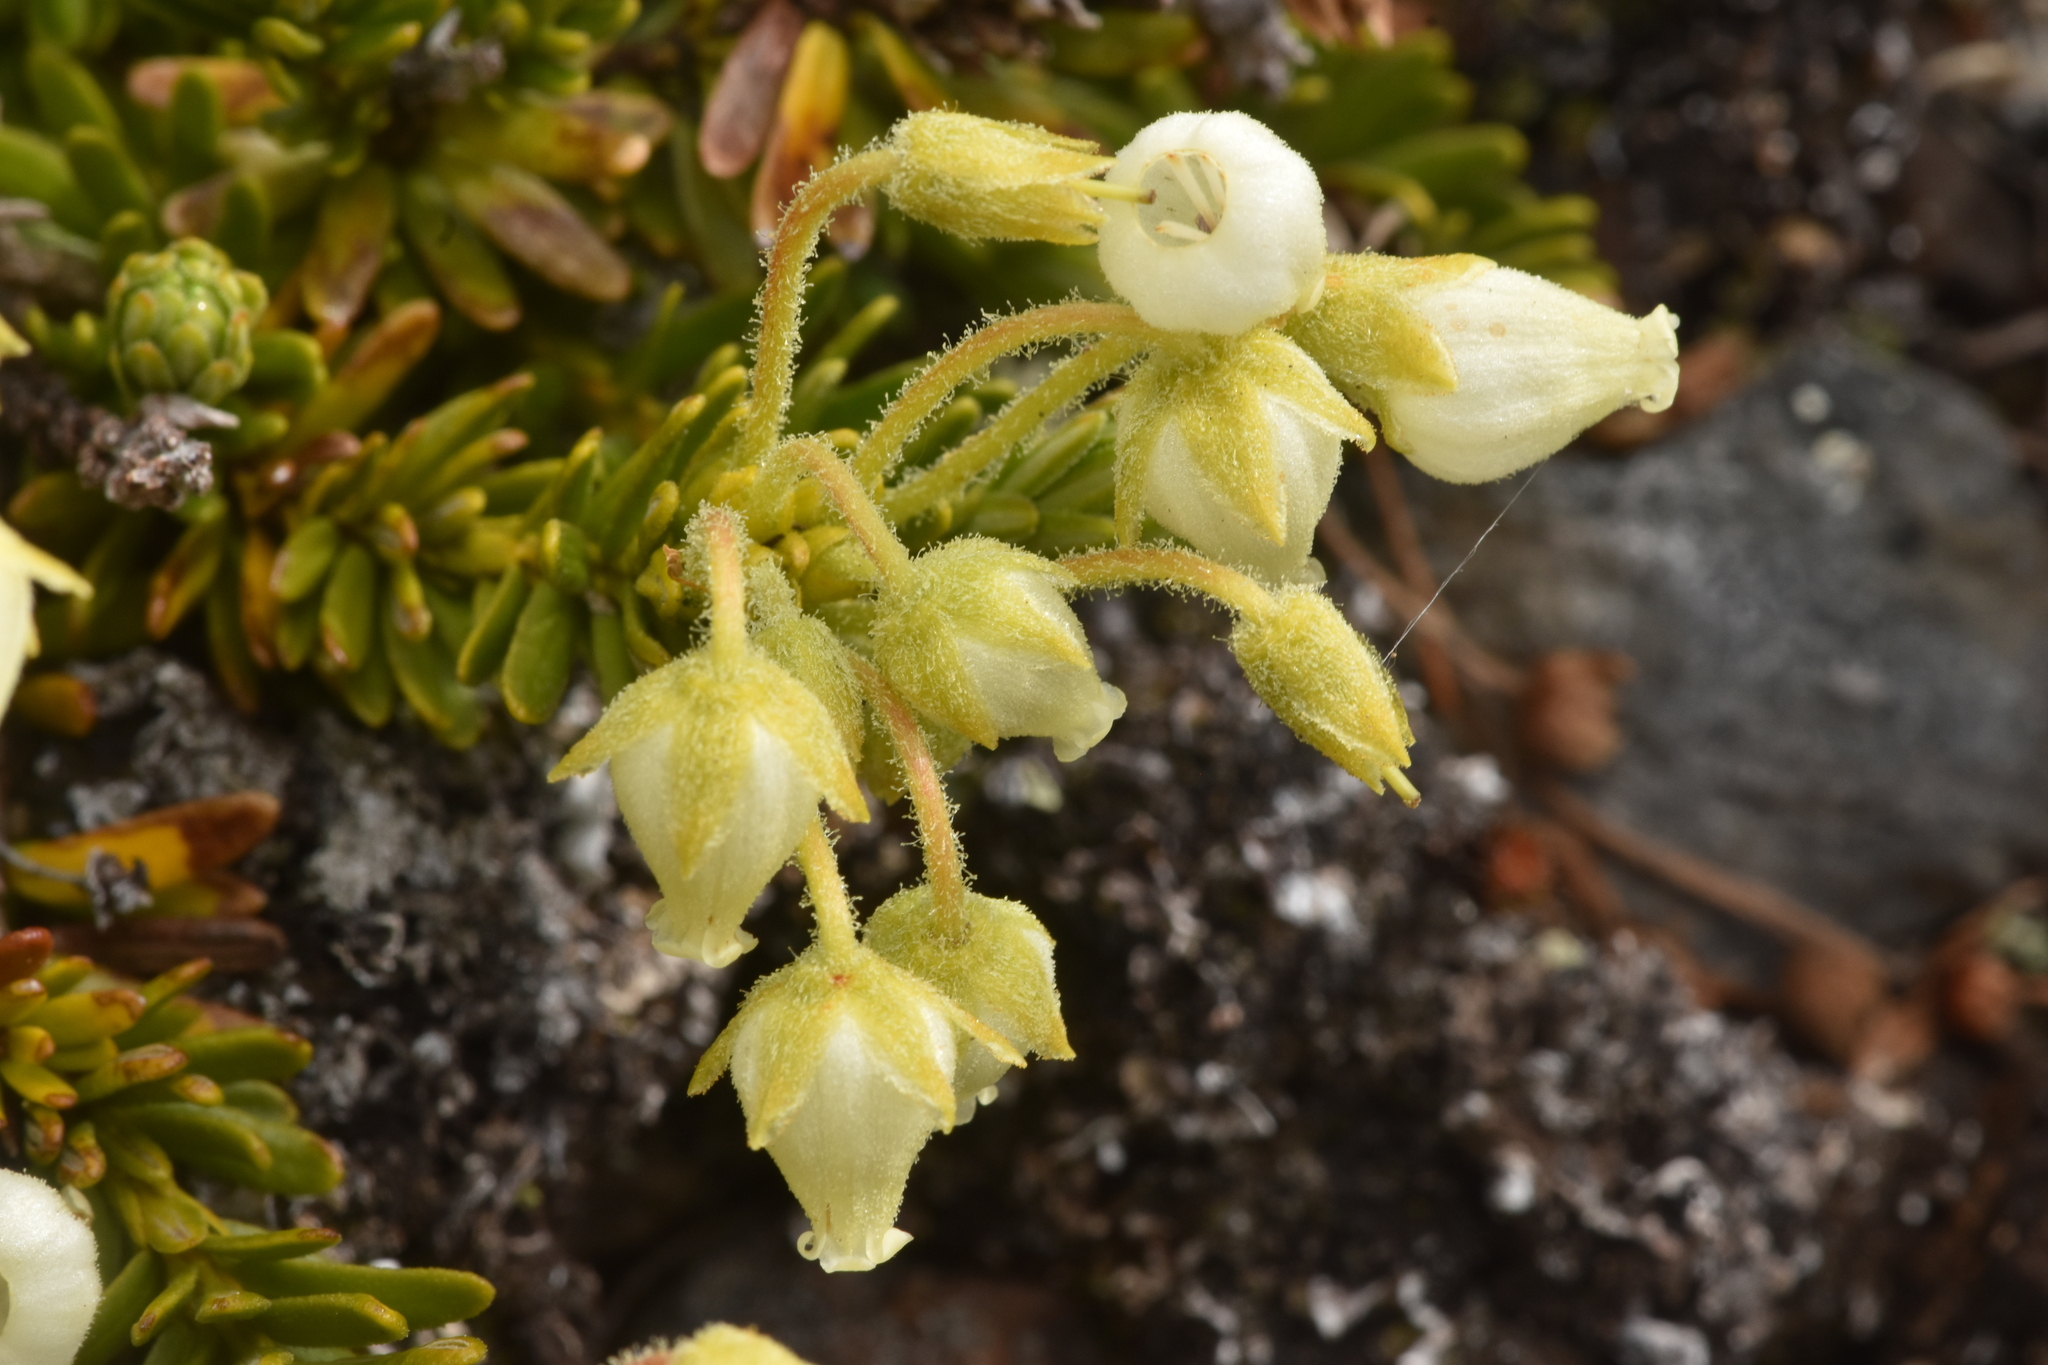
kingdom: Plantae
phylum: Tracheophyta
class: Magnoliopsida
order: Ericales
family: Ericaceae
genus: Phyllodoce
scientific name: Phyllodoce glanduliflora
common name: Cream mountain heather
